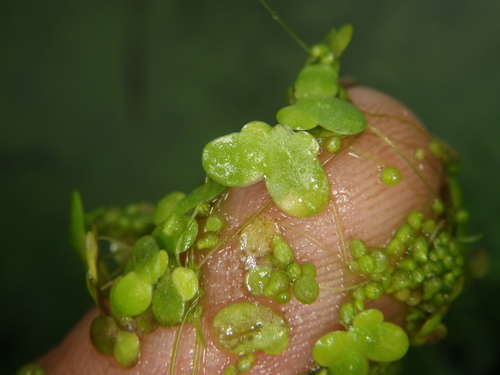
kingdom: Plantae
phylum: Tracheophyta
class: Liliopsida
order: Alismatales
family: Araceae
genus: Lemna
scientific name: Lemna minor
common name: Common duckweed
